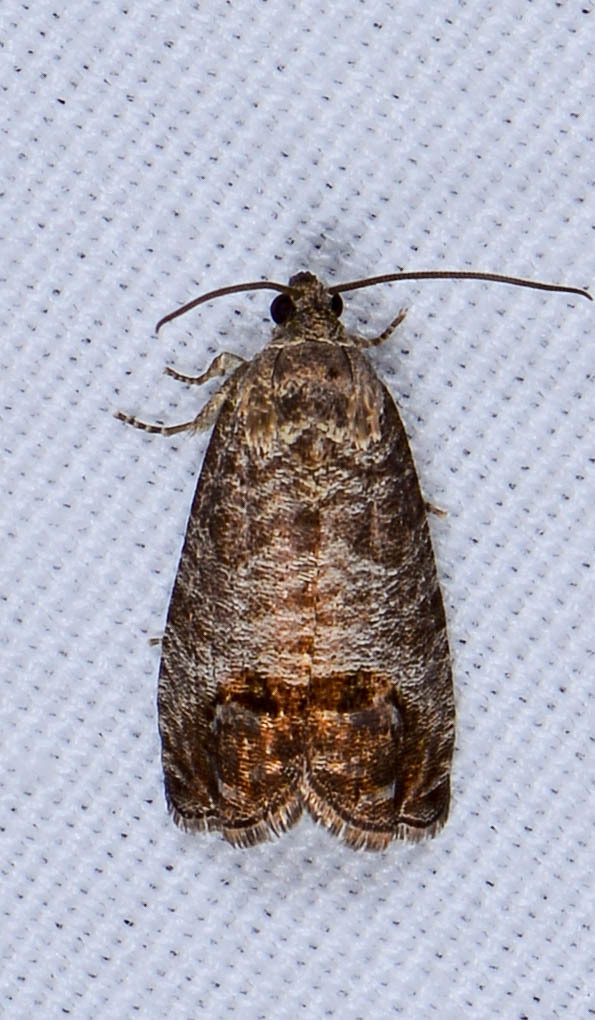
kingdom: Animalia
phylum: Arthropoda
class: Insecta
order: Lepidoptera
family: Tortricidae
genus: Cydia
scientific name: Cydia pomonella
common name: Codling moth
